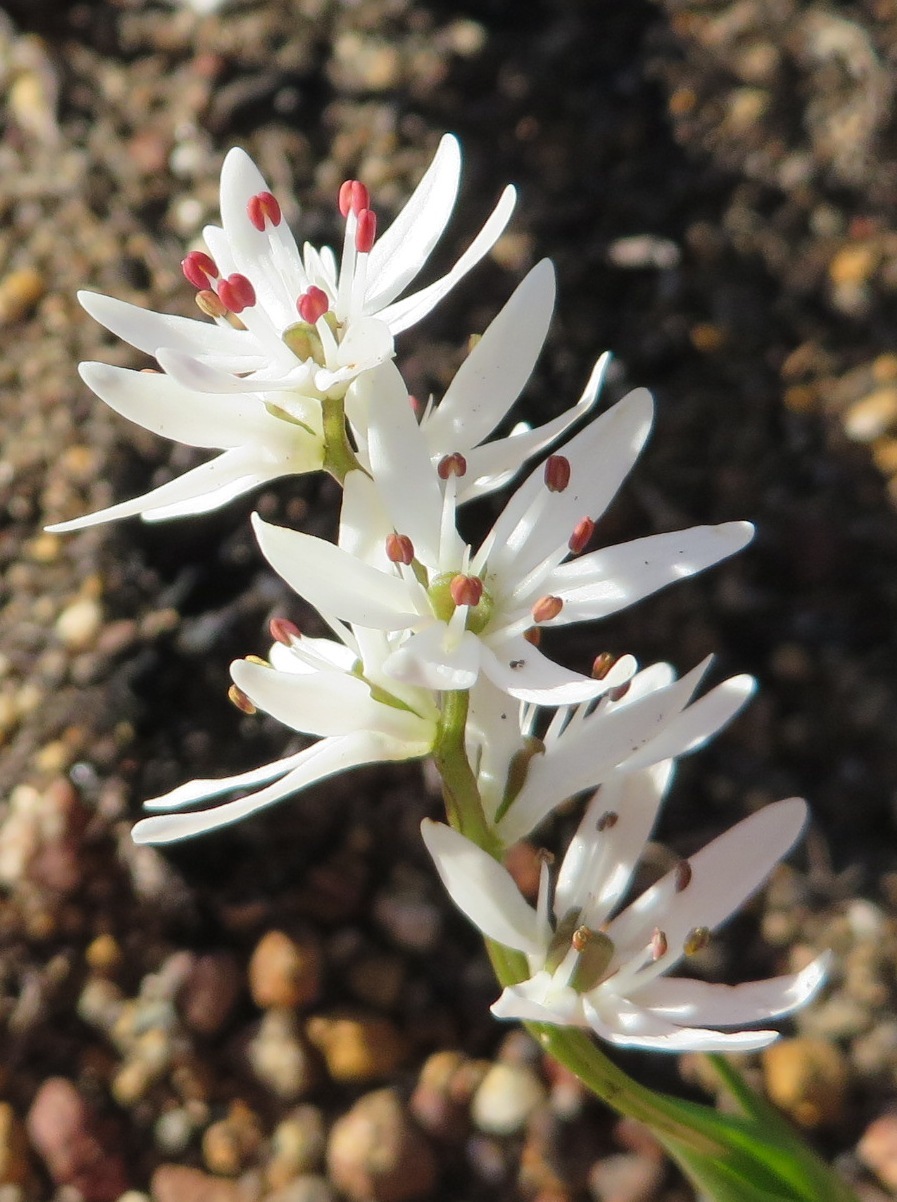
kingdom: Plantae
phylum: Tracheophyta
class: Liliopsida
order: Liliales
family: Colchicaceae
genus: Wurmbea
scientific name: Wurmbea punctata
